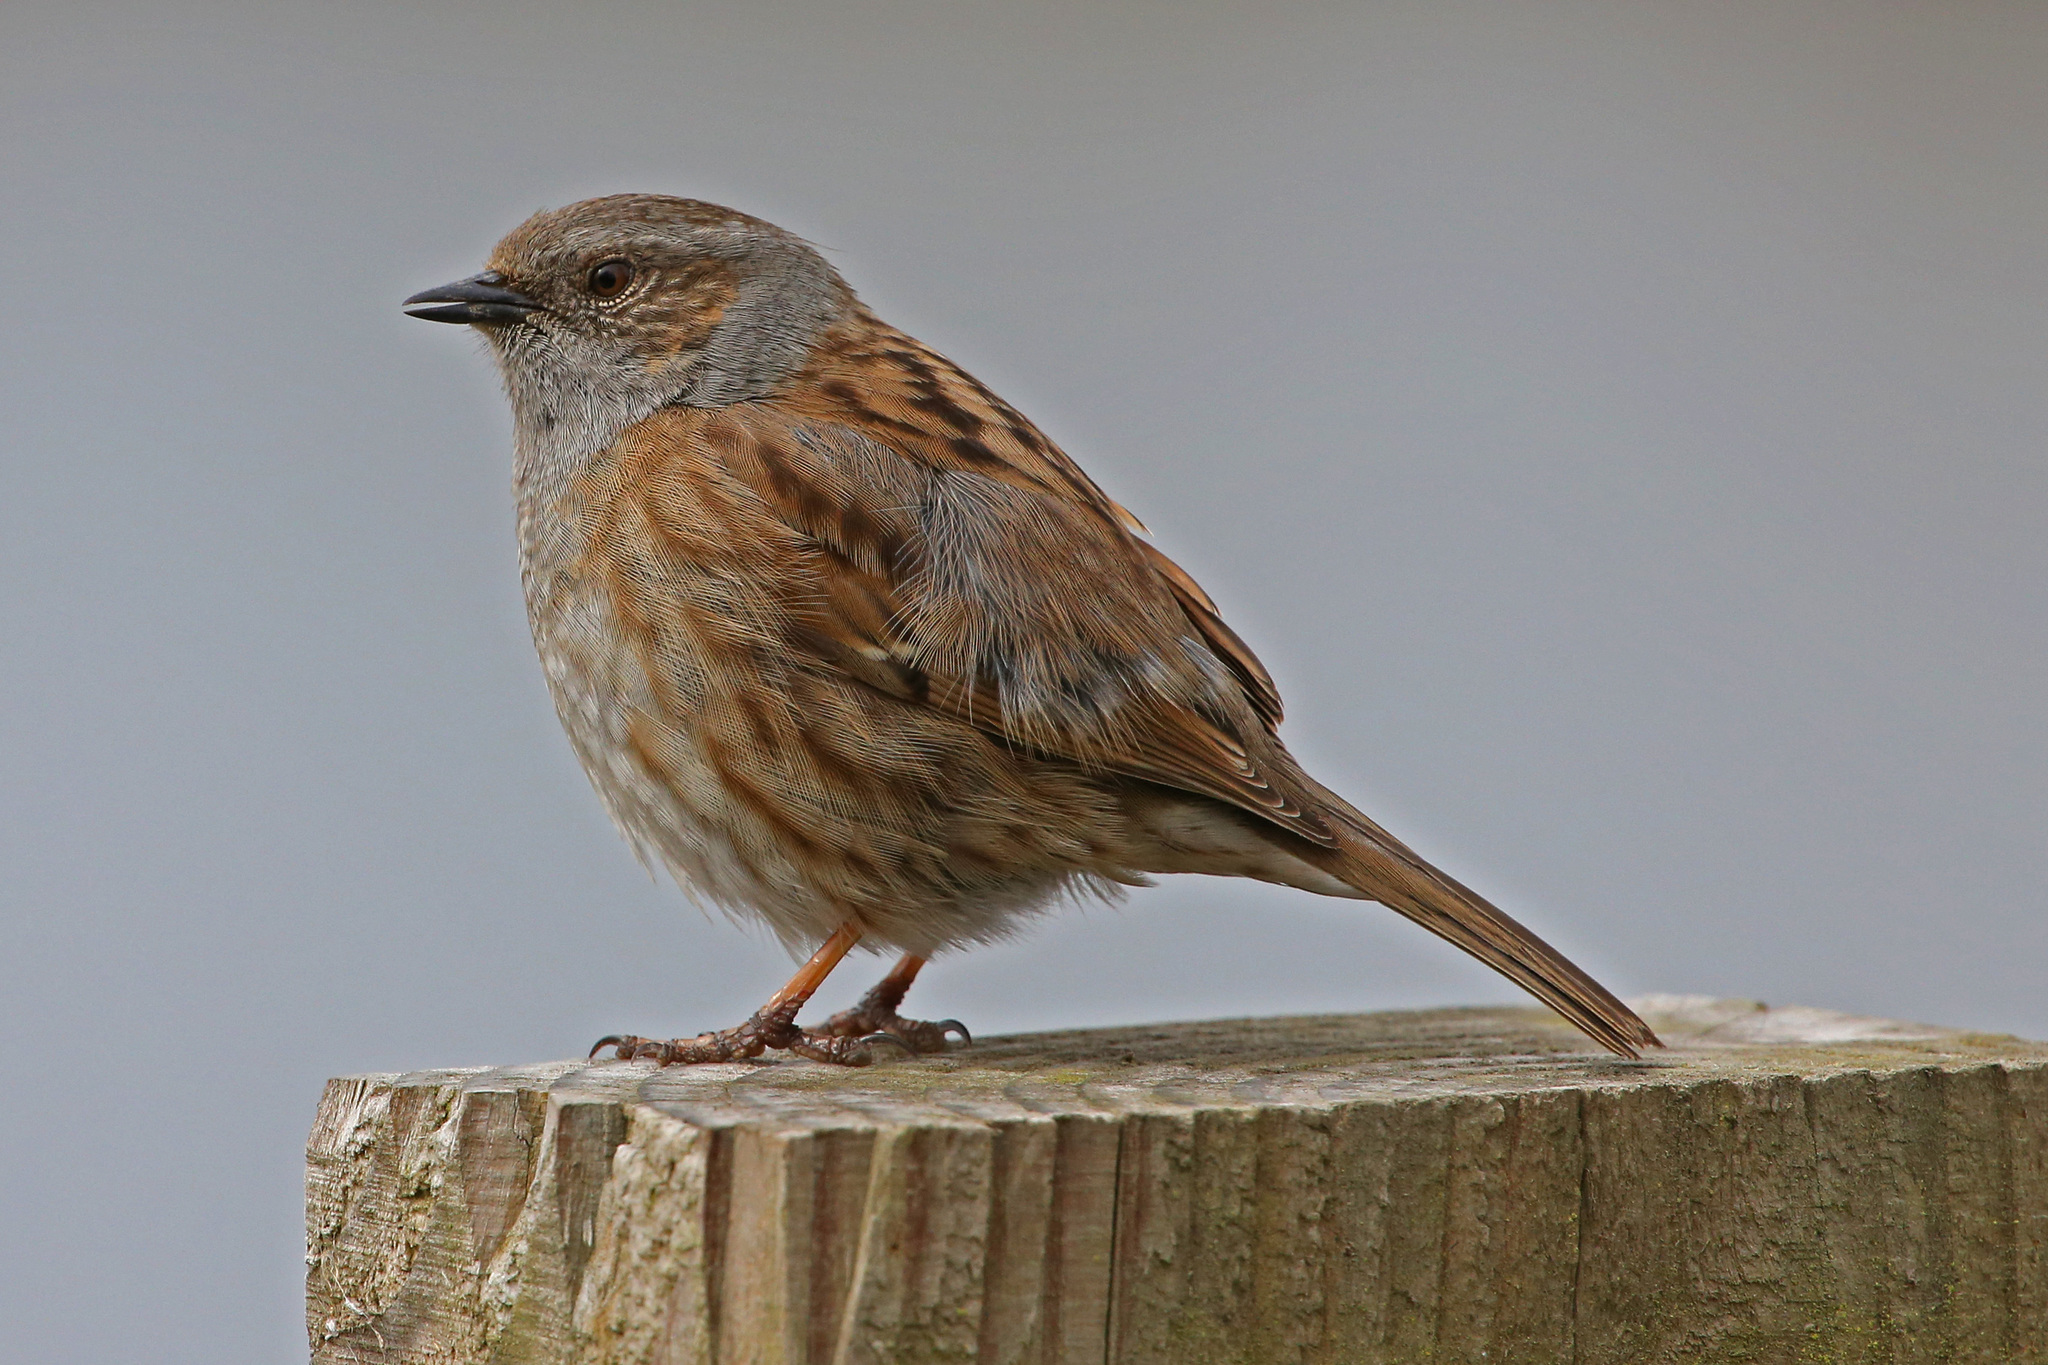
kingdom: Animalia
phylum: Chordata
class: Aves
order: Passeriformes
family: Prunellidae
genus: Prunella
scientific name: Prunella modularis
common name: Dunnock
